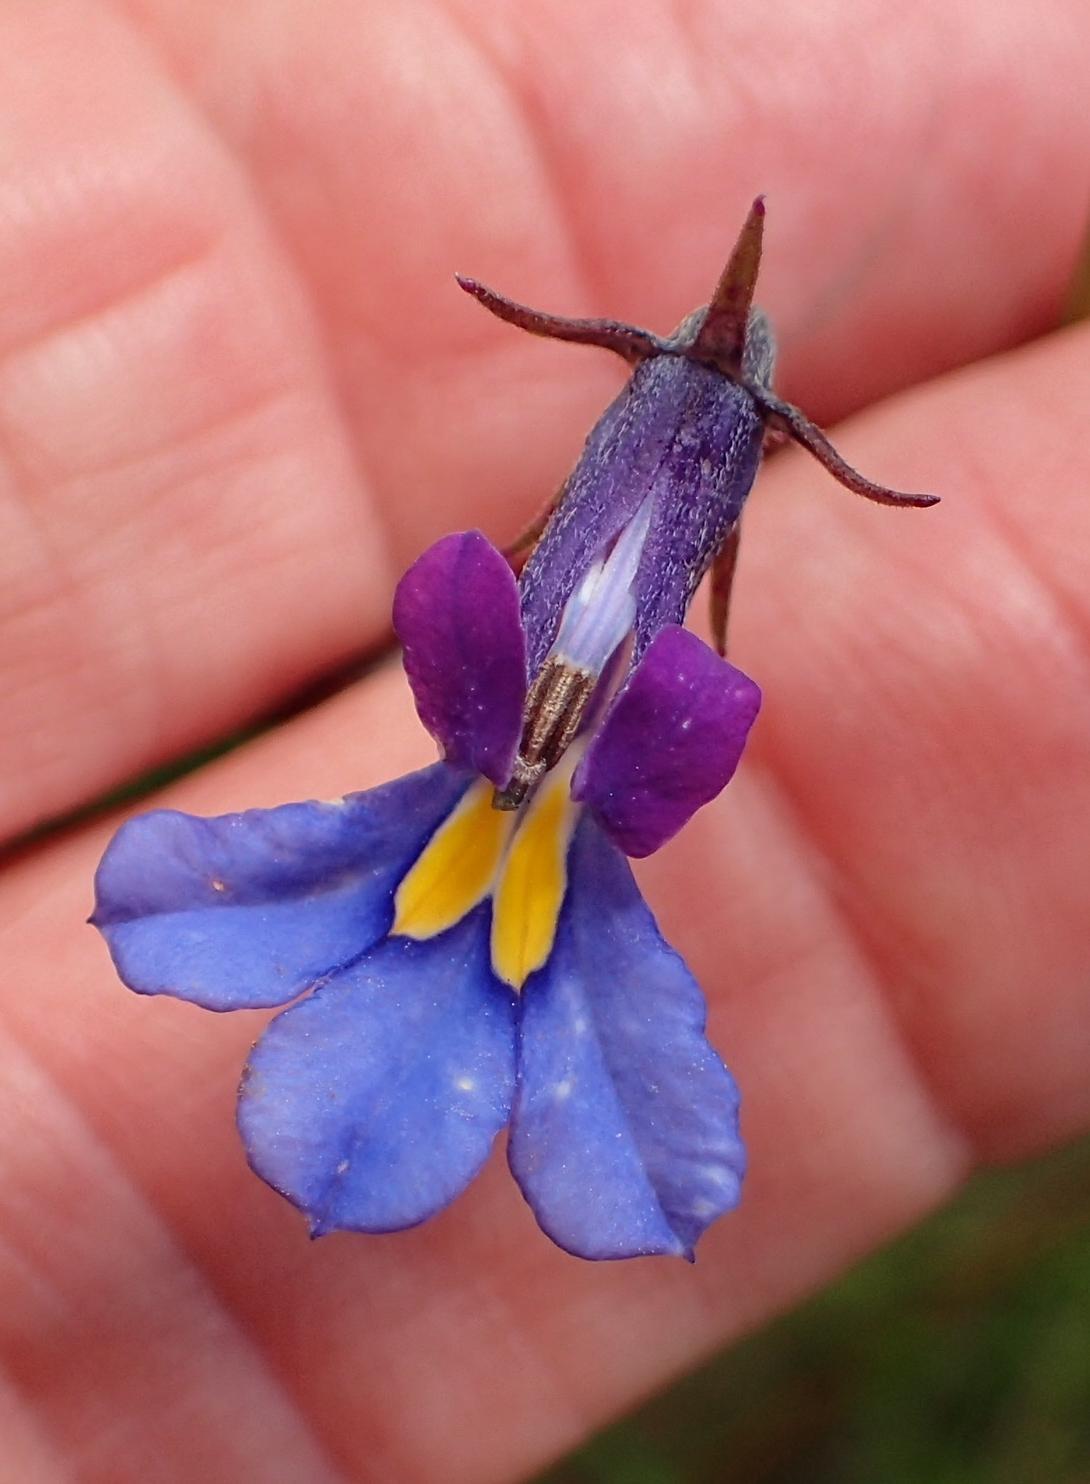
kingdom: Plantae
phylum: Tracheophyta
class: Magnoliopsida
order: Asterales
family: Campanulaceae
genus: Monopsis
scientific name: Monopsis decipiens
